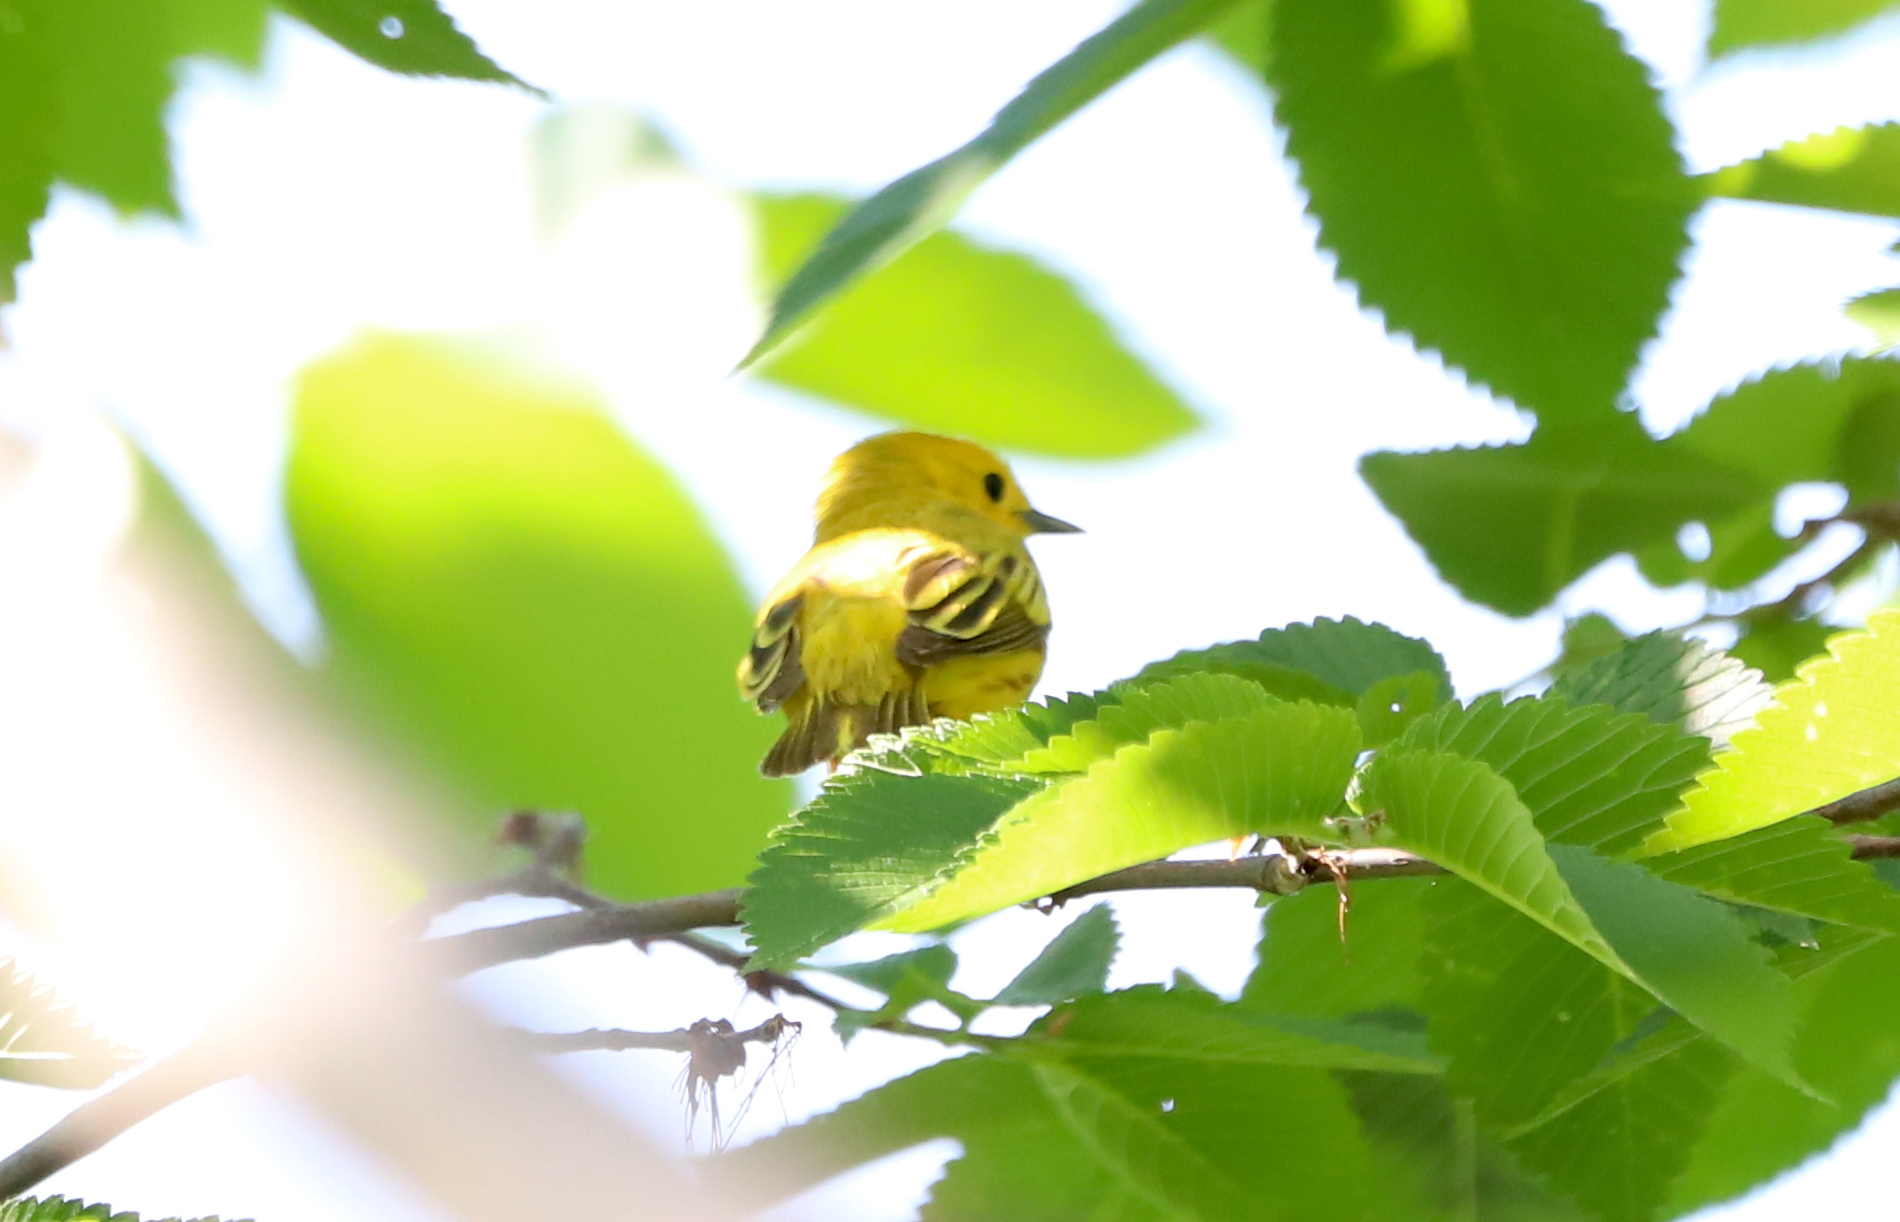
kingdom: Animalia
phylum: Chordata
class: Aves
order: Passeriformes
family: Parulidae
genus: Setophaga
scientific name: Setophaga petechia
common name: Yellow warbler
